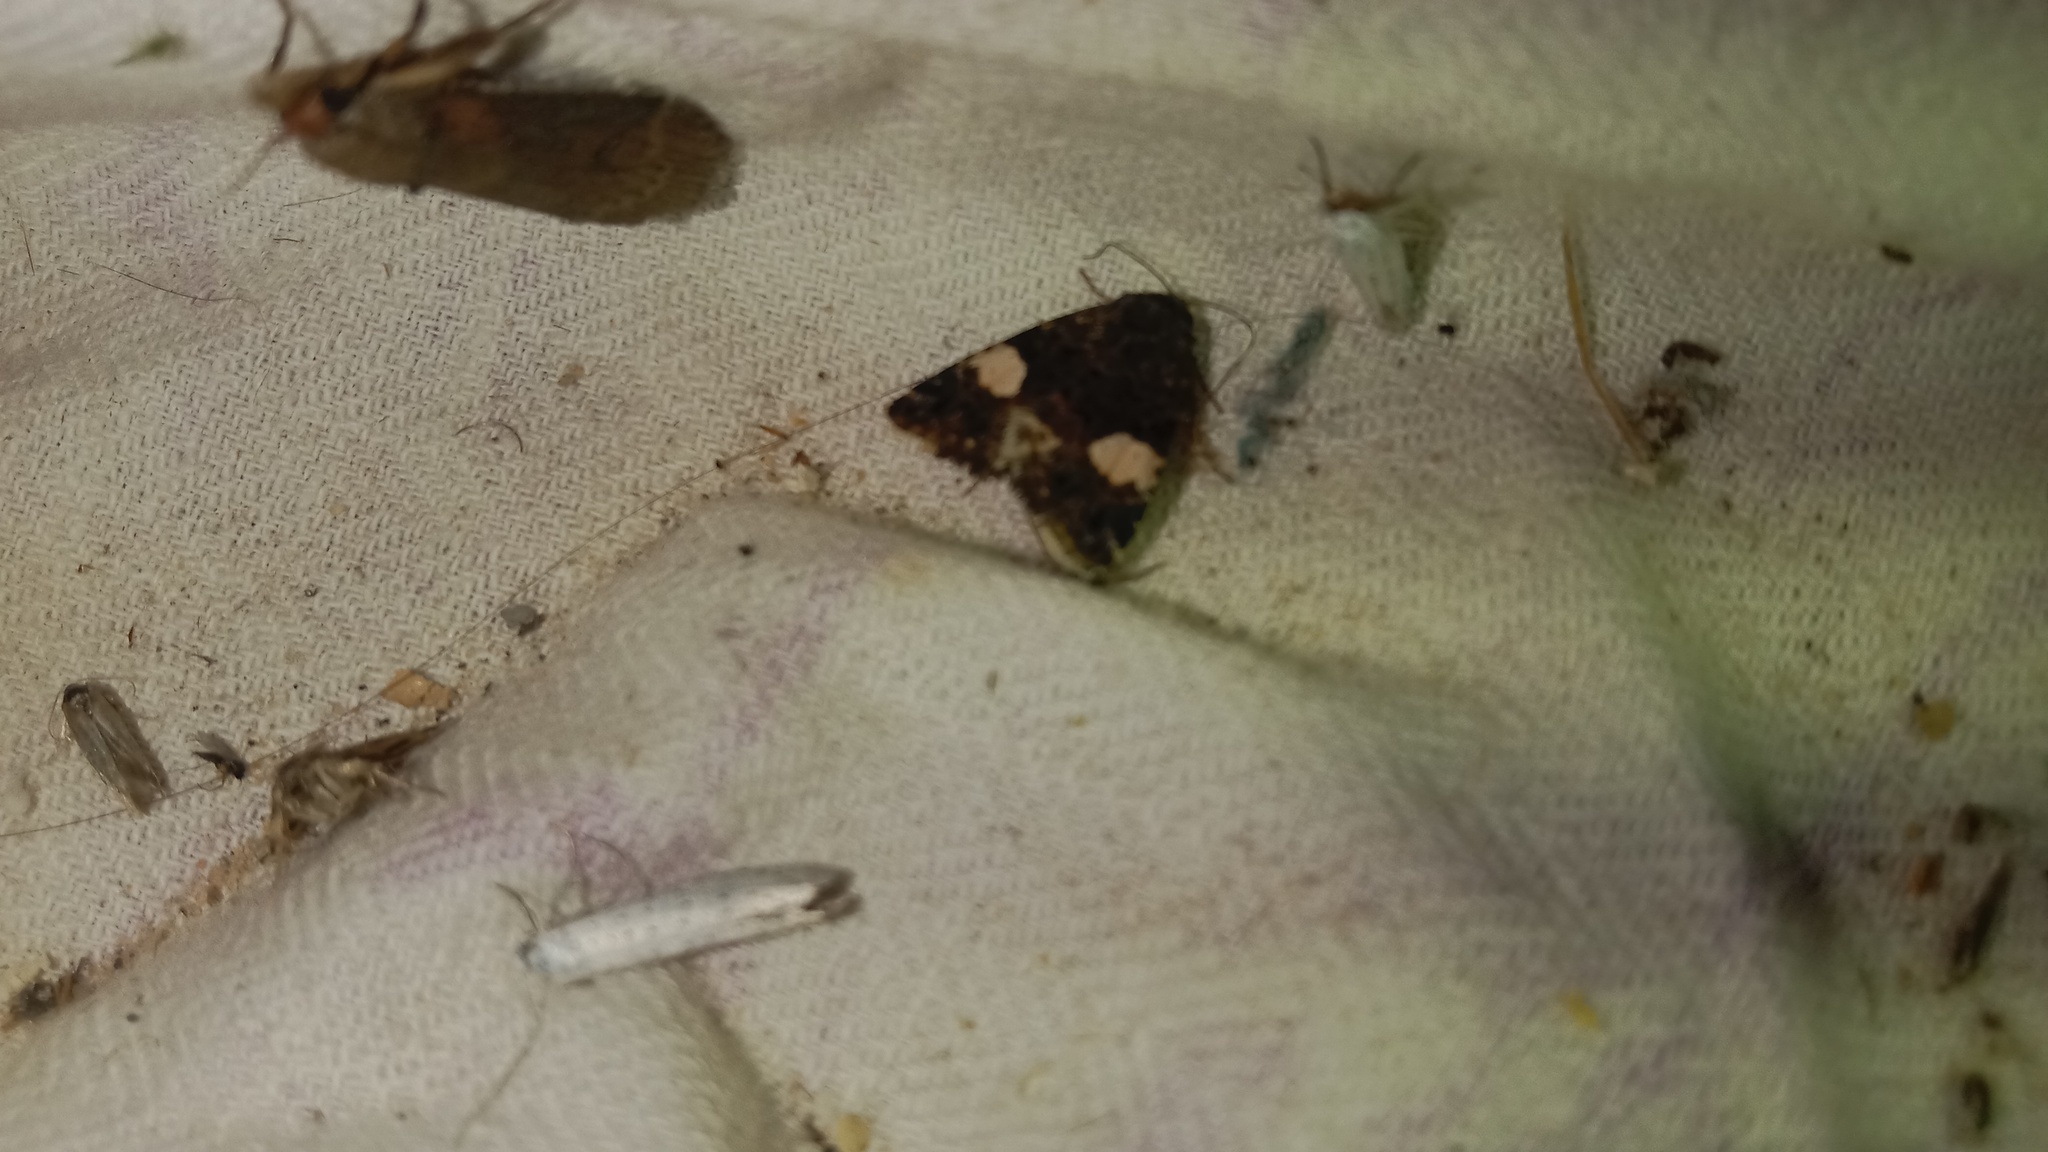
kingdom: Animalia
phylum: Arthropoda
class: Insecta
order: Lepidoptera
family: Erebidae
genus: Tyta
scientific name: Tyta luctuosa
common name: Four-spotted
